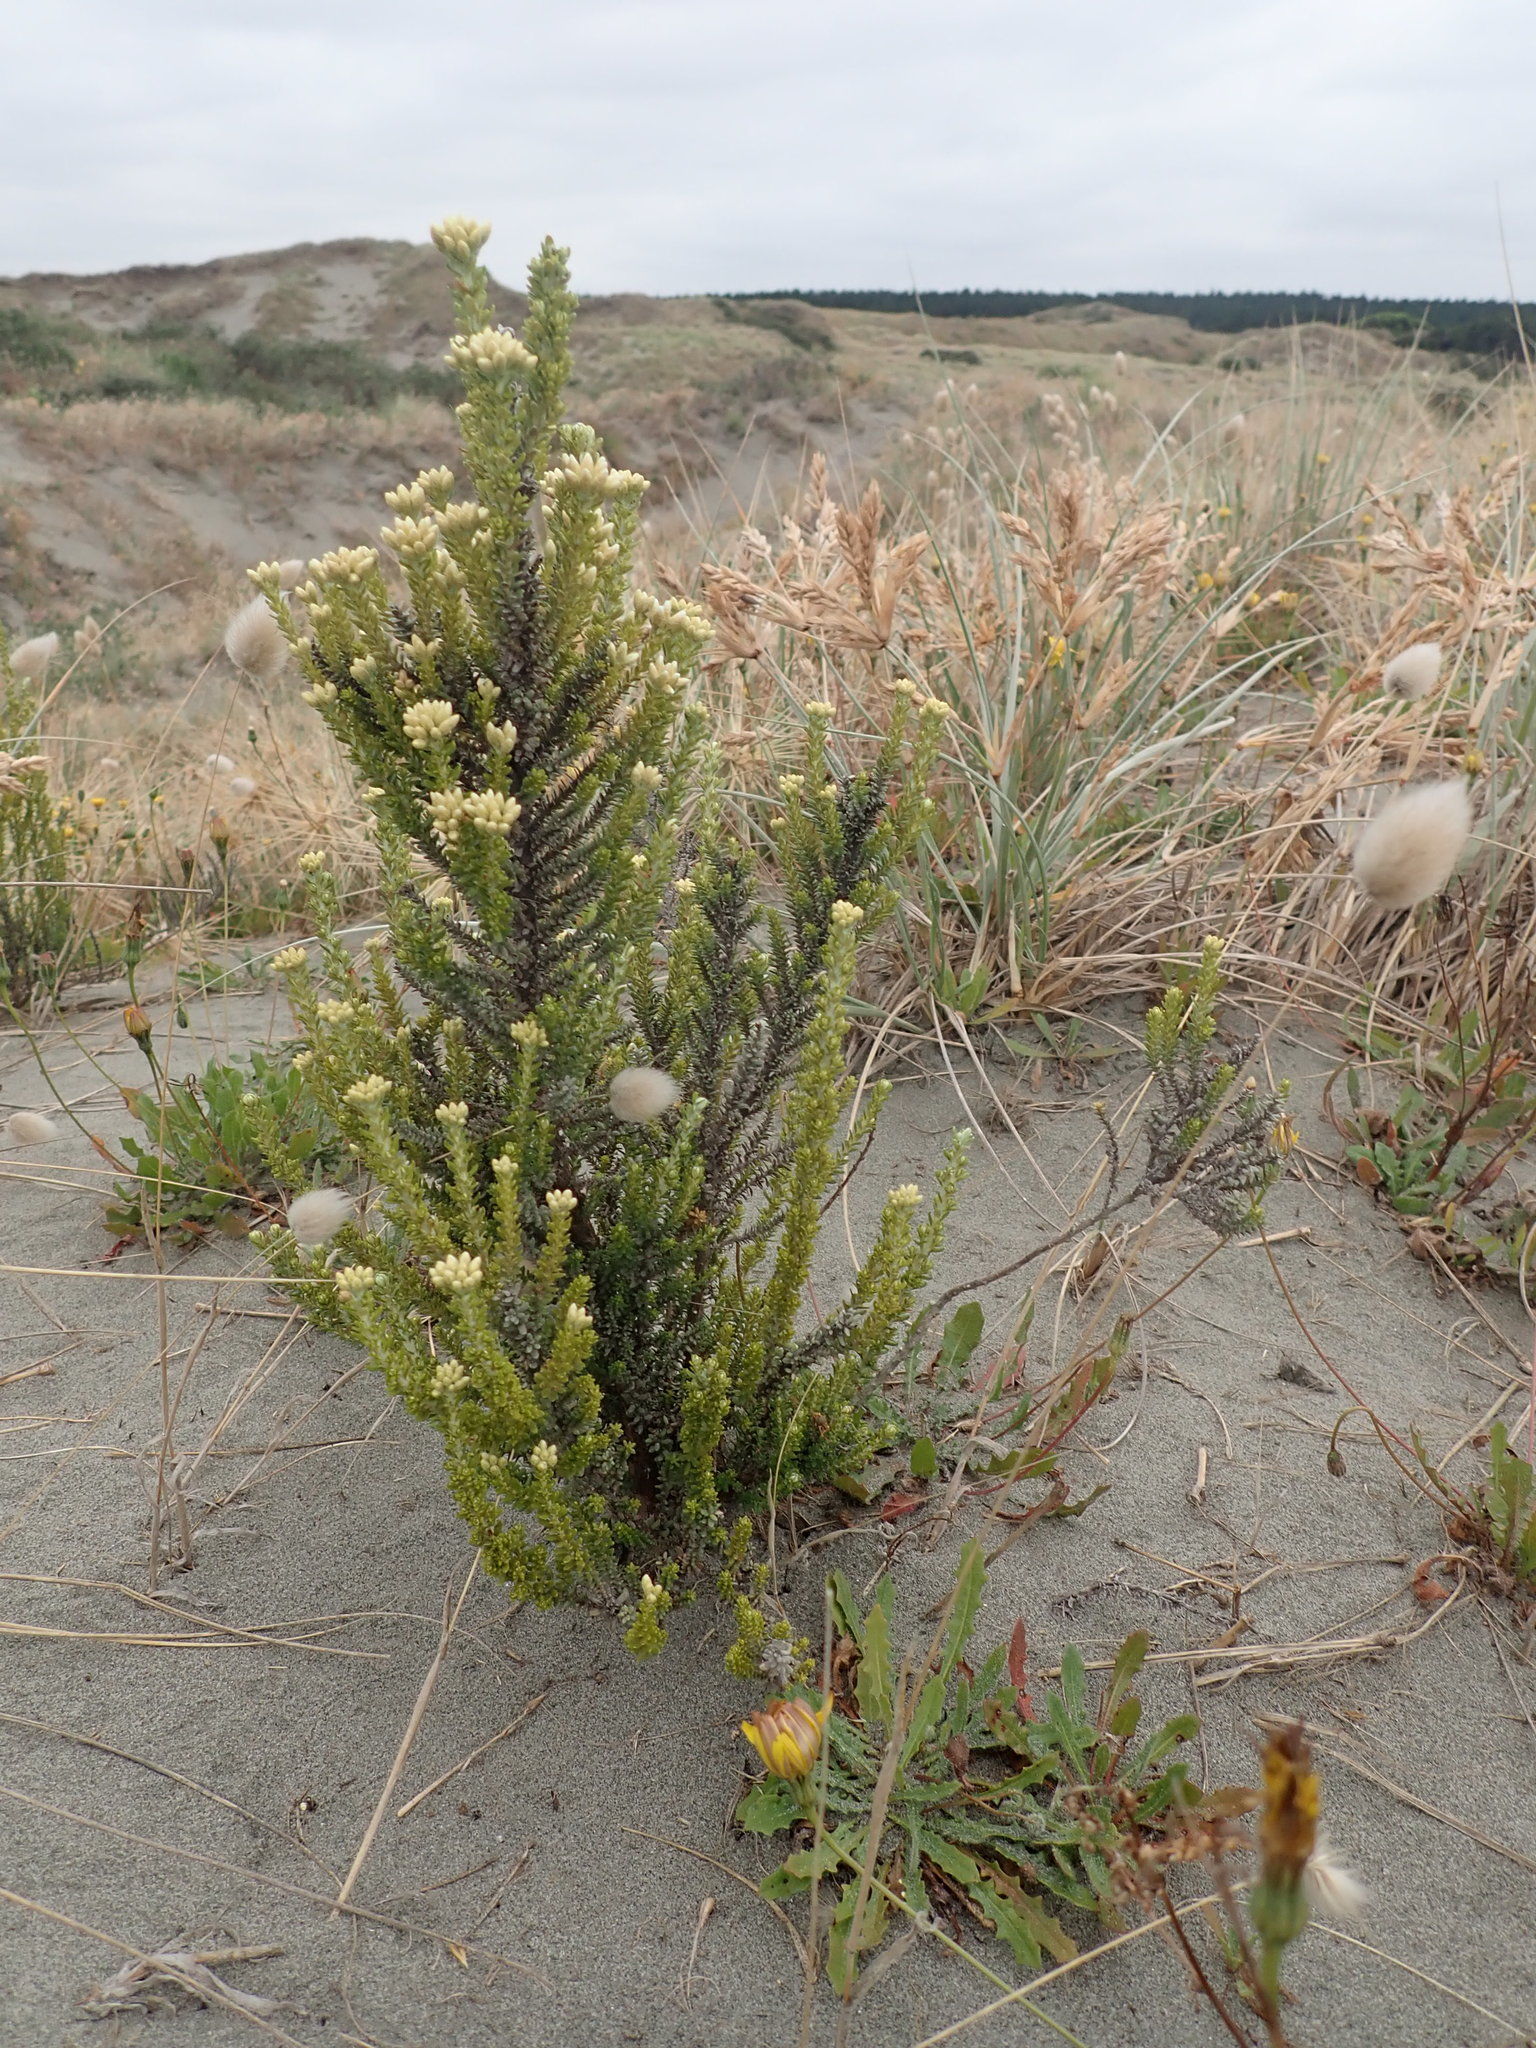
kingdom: Plantae
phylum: Tracheophyta
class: Magnoliopsida
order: Asterales
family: Asteraceae
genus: Ozothamnus
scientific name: Ozothamnus leptophyllus
